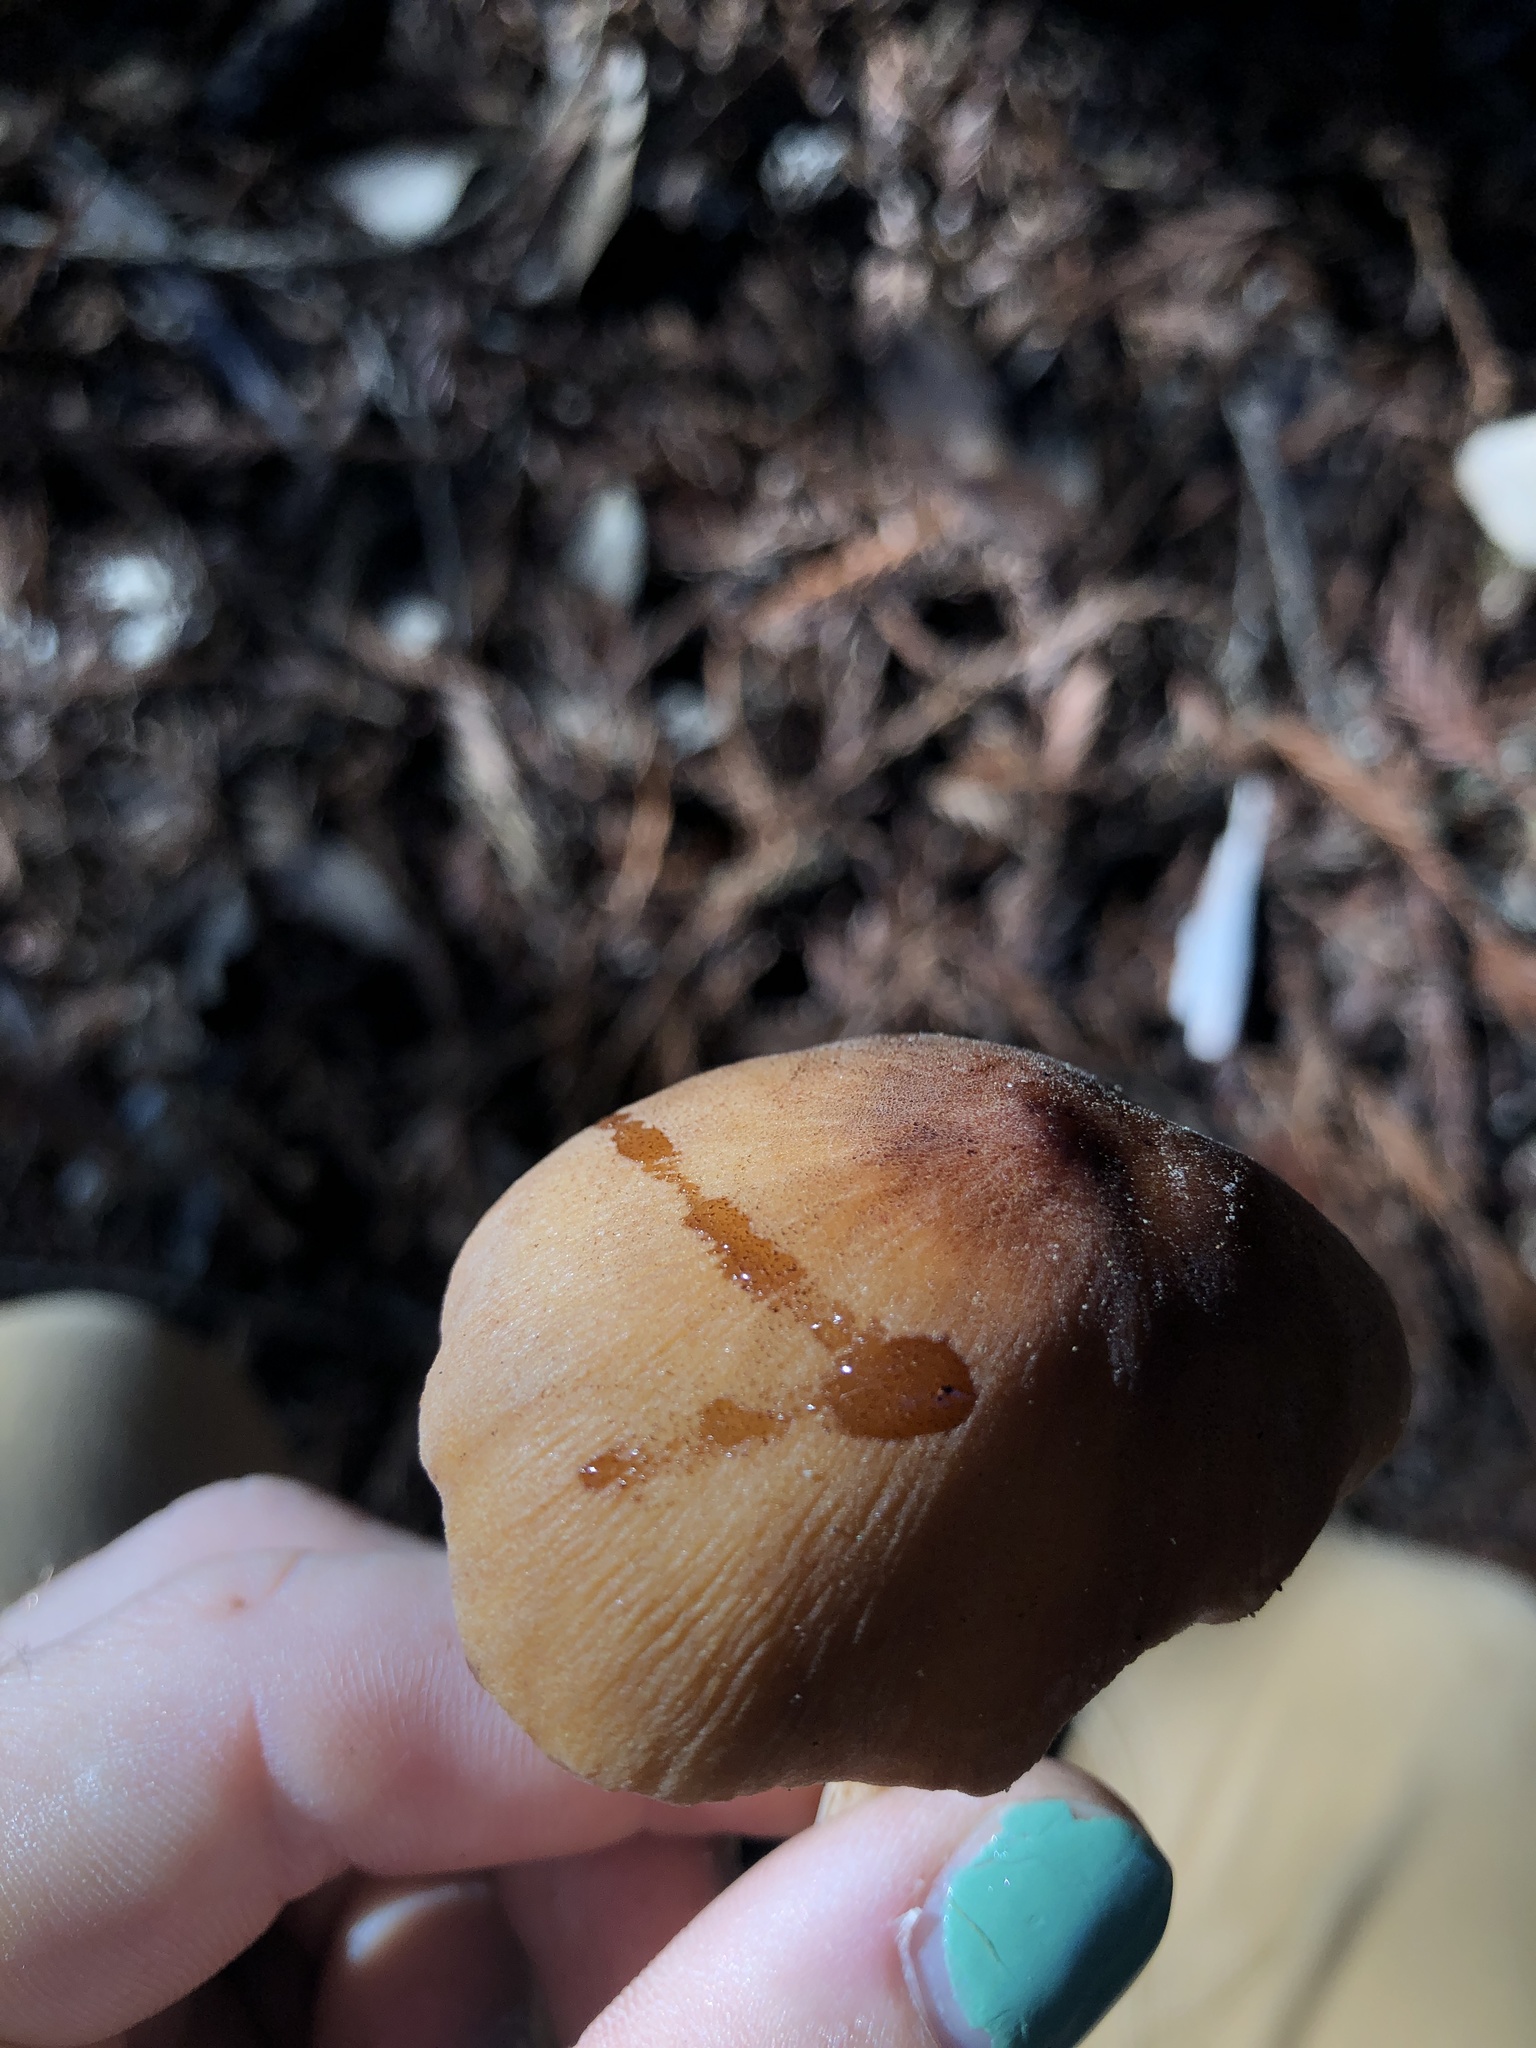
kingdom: Fungi
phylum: Basidiomycota
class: Agaricomycetes
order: Agaricales
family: Tricholomataceae
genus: Caulorhiza
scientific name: Caulorhiza umbonata
